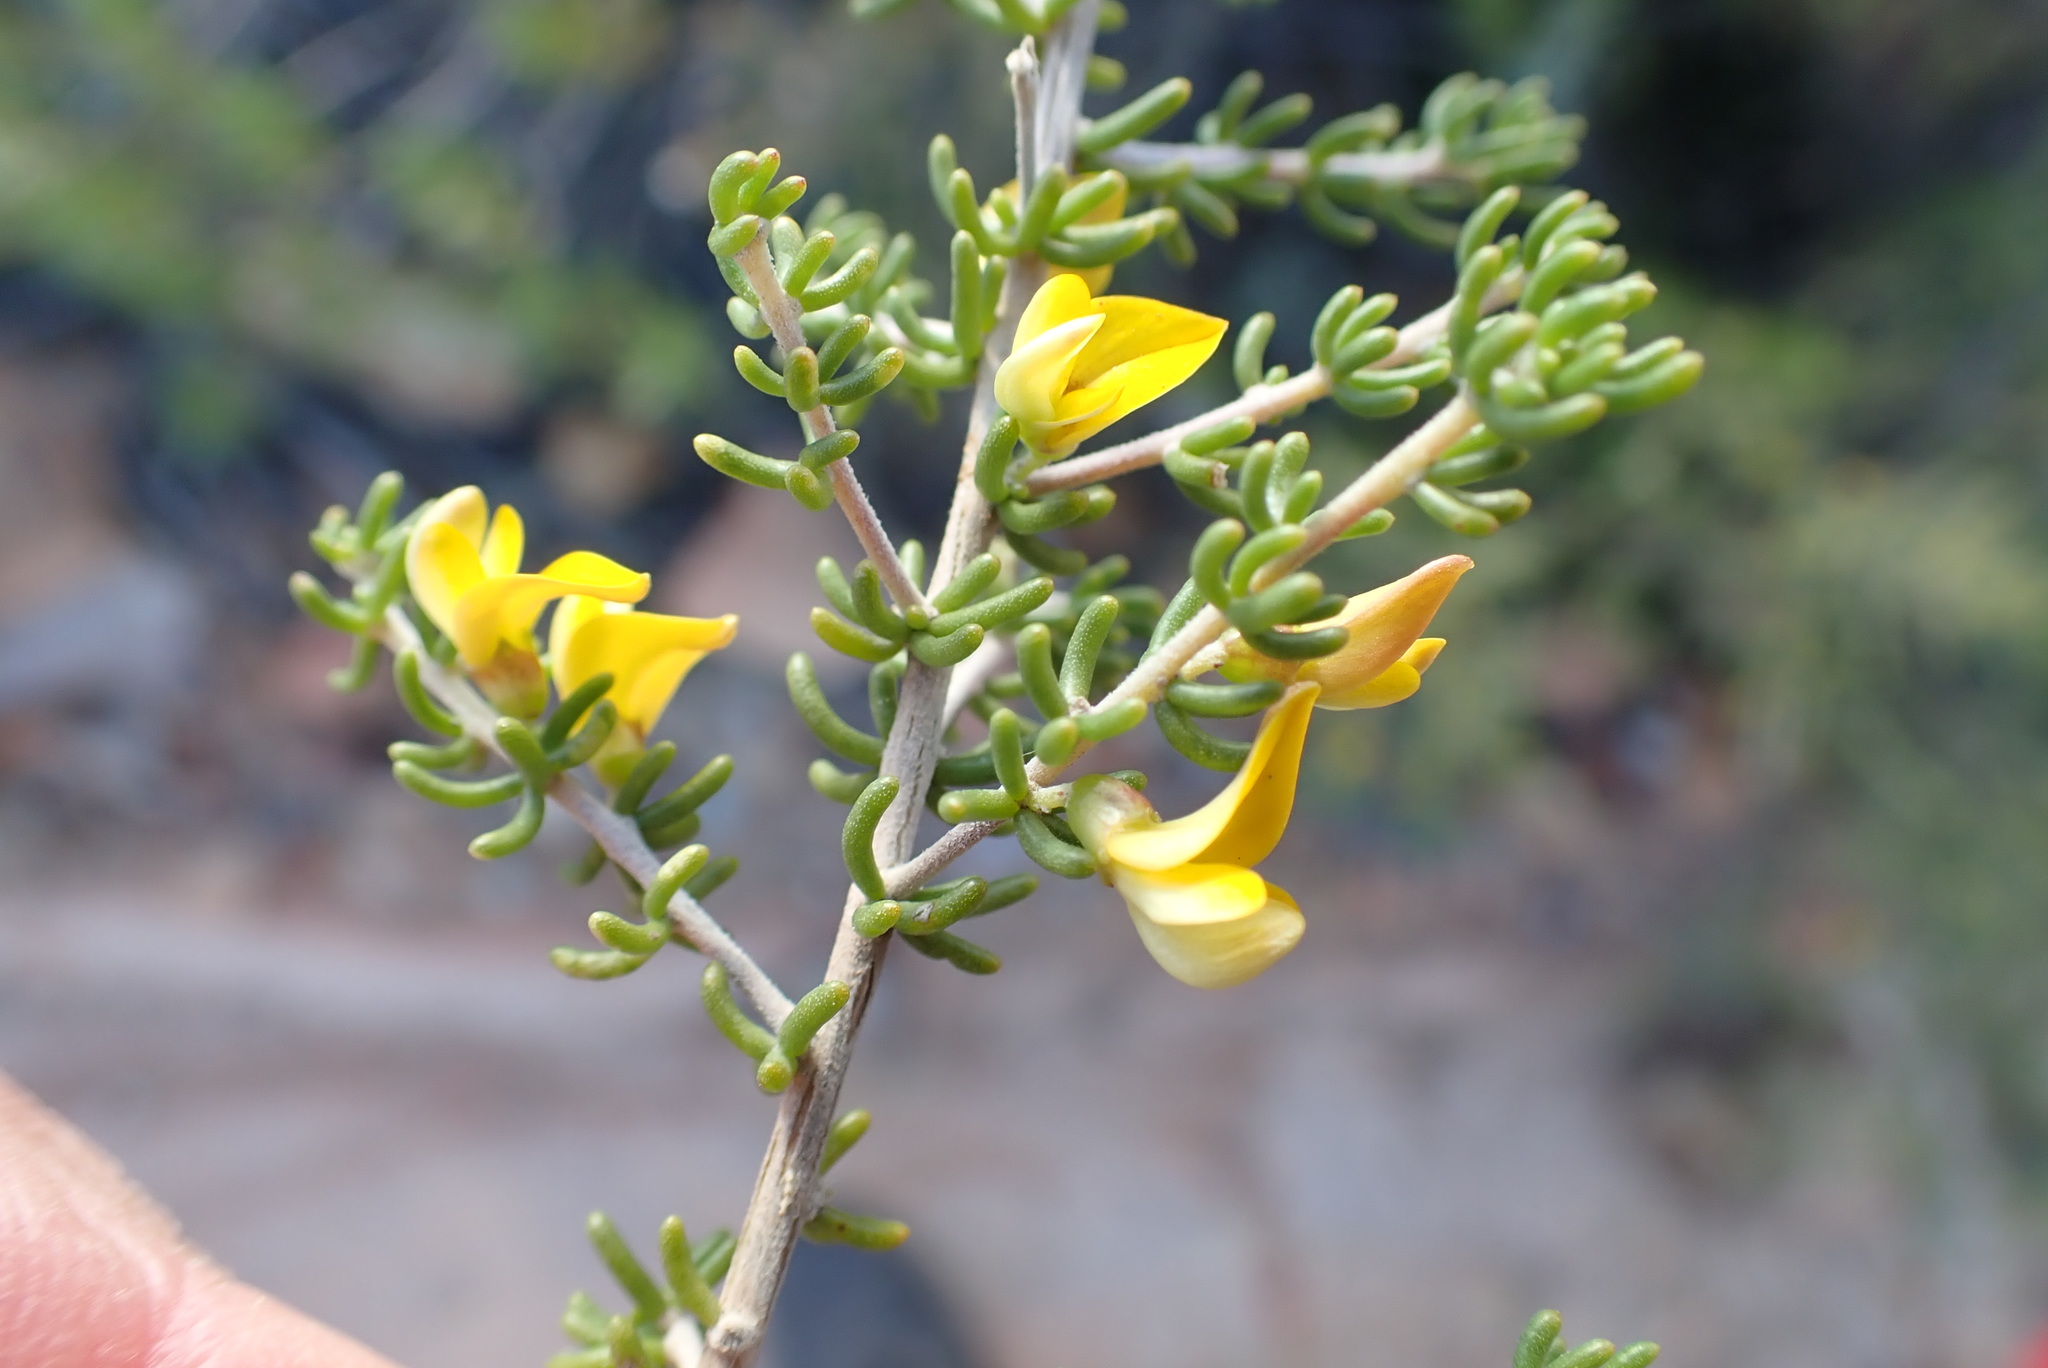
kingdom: Plantae
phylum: Tracheophyta
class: Magnoliopsida
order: Fabales
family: Fabaceae
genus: Aspalathus
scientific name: Aspalathus subtingens
